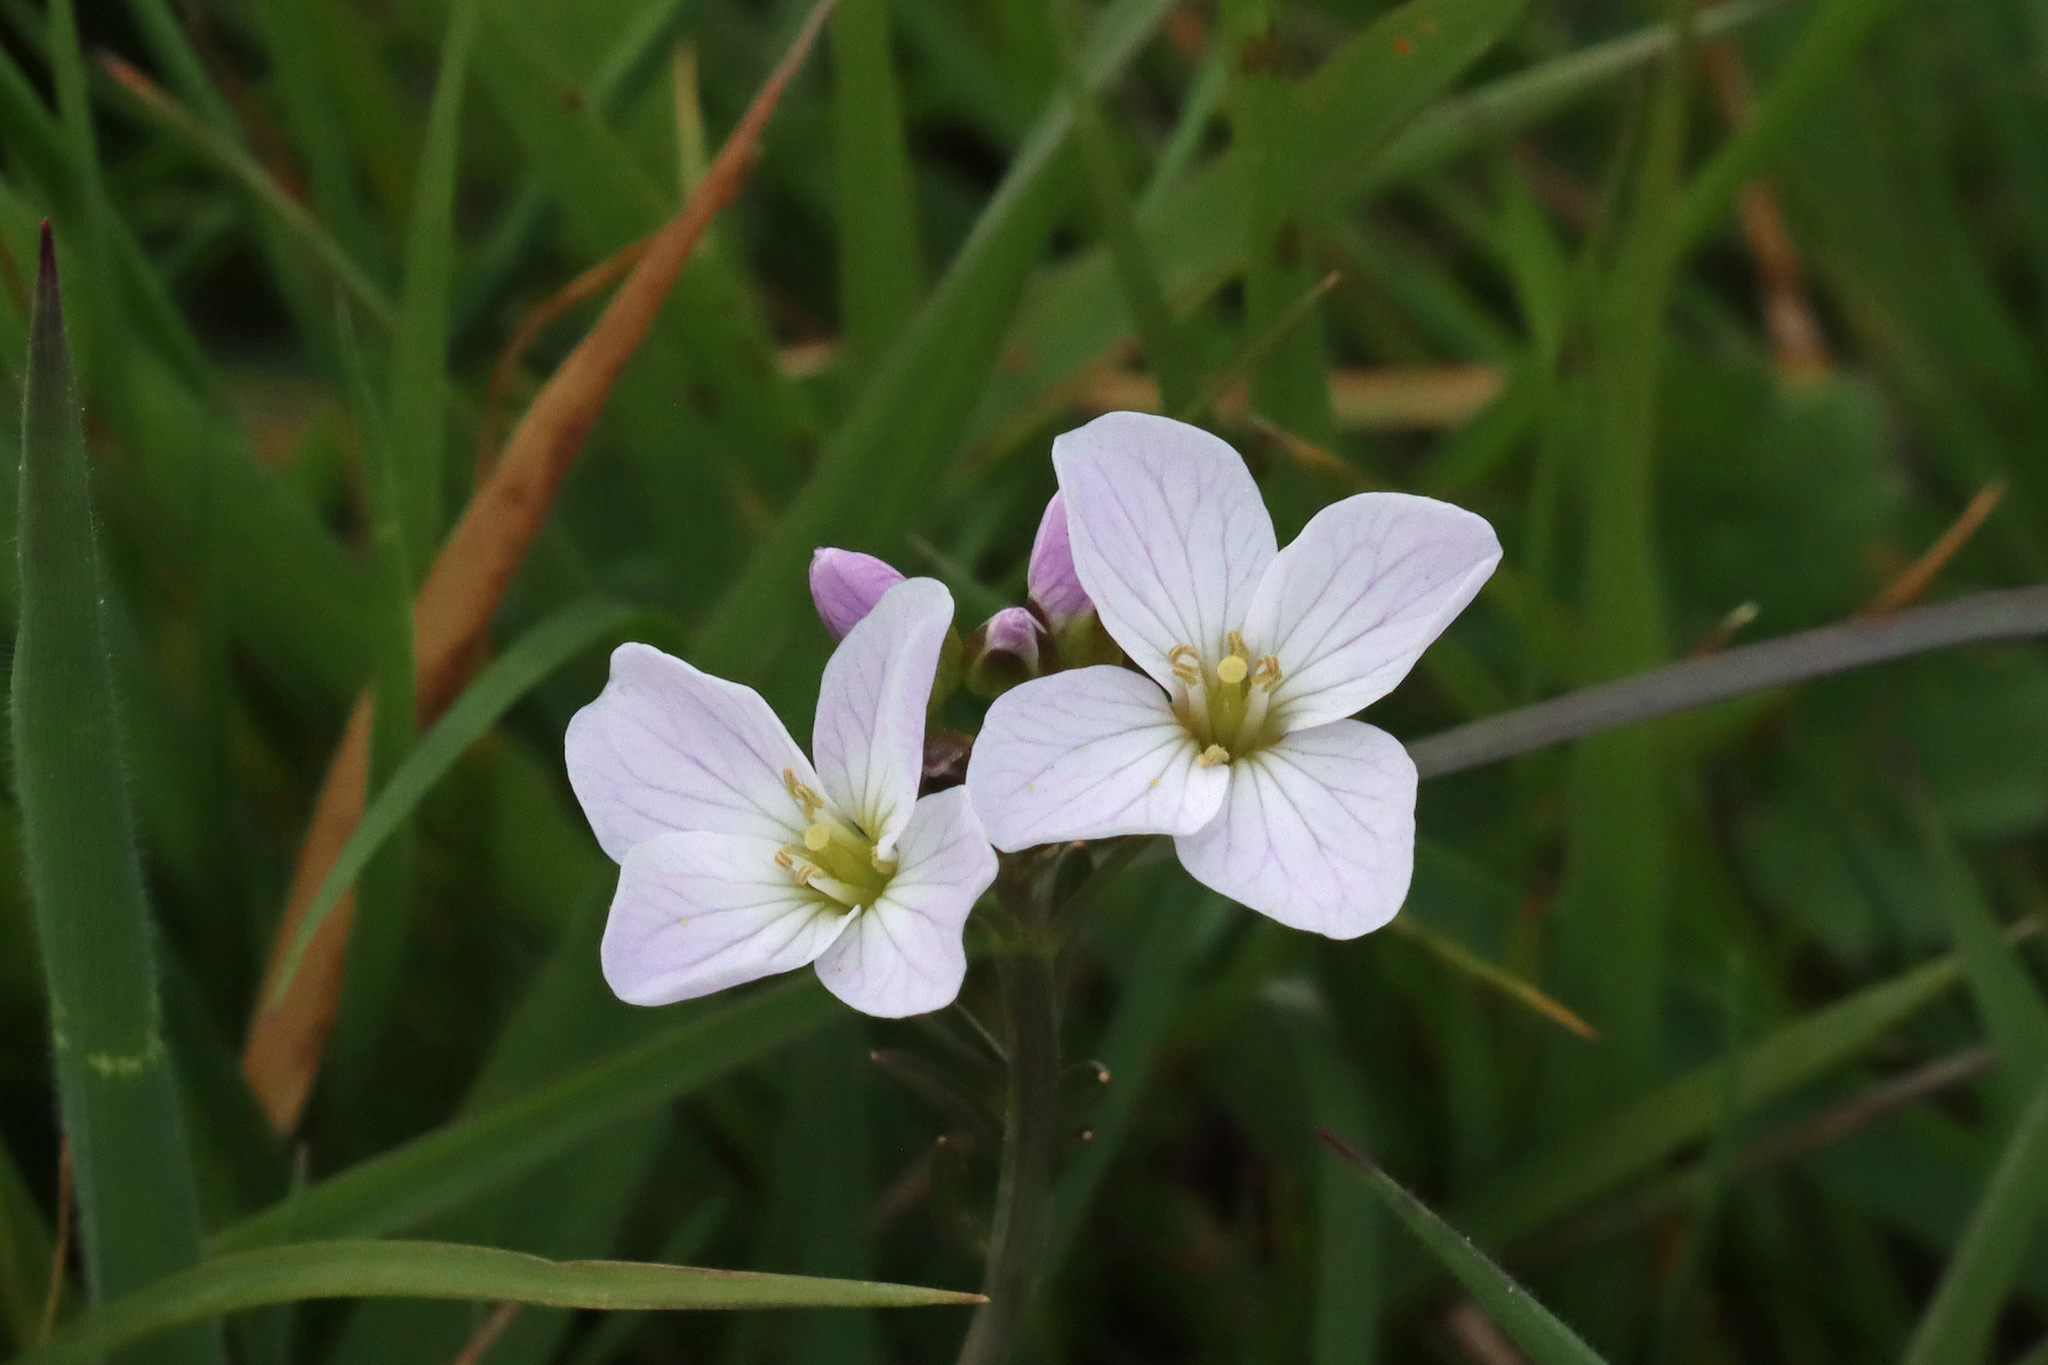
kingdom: Plantae
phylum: Tracheophyta
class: Magnoliopsida
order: Brassicales
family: Brassicaceae
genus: Cardamine
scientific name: Cardamine pratensis
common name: Cuckoo flower
